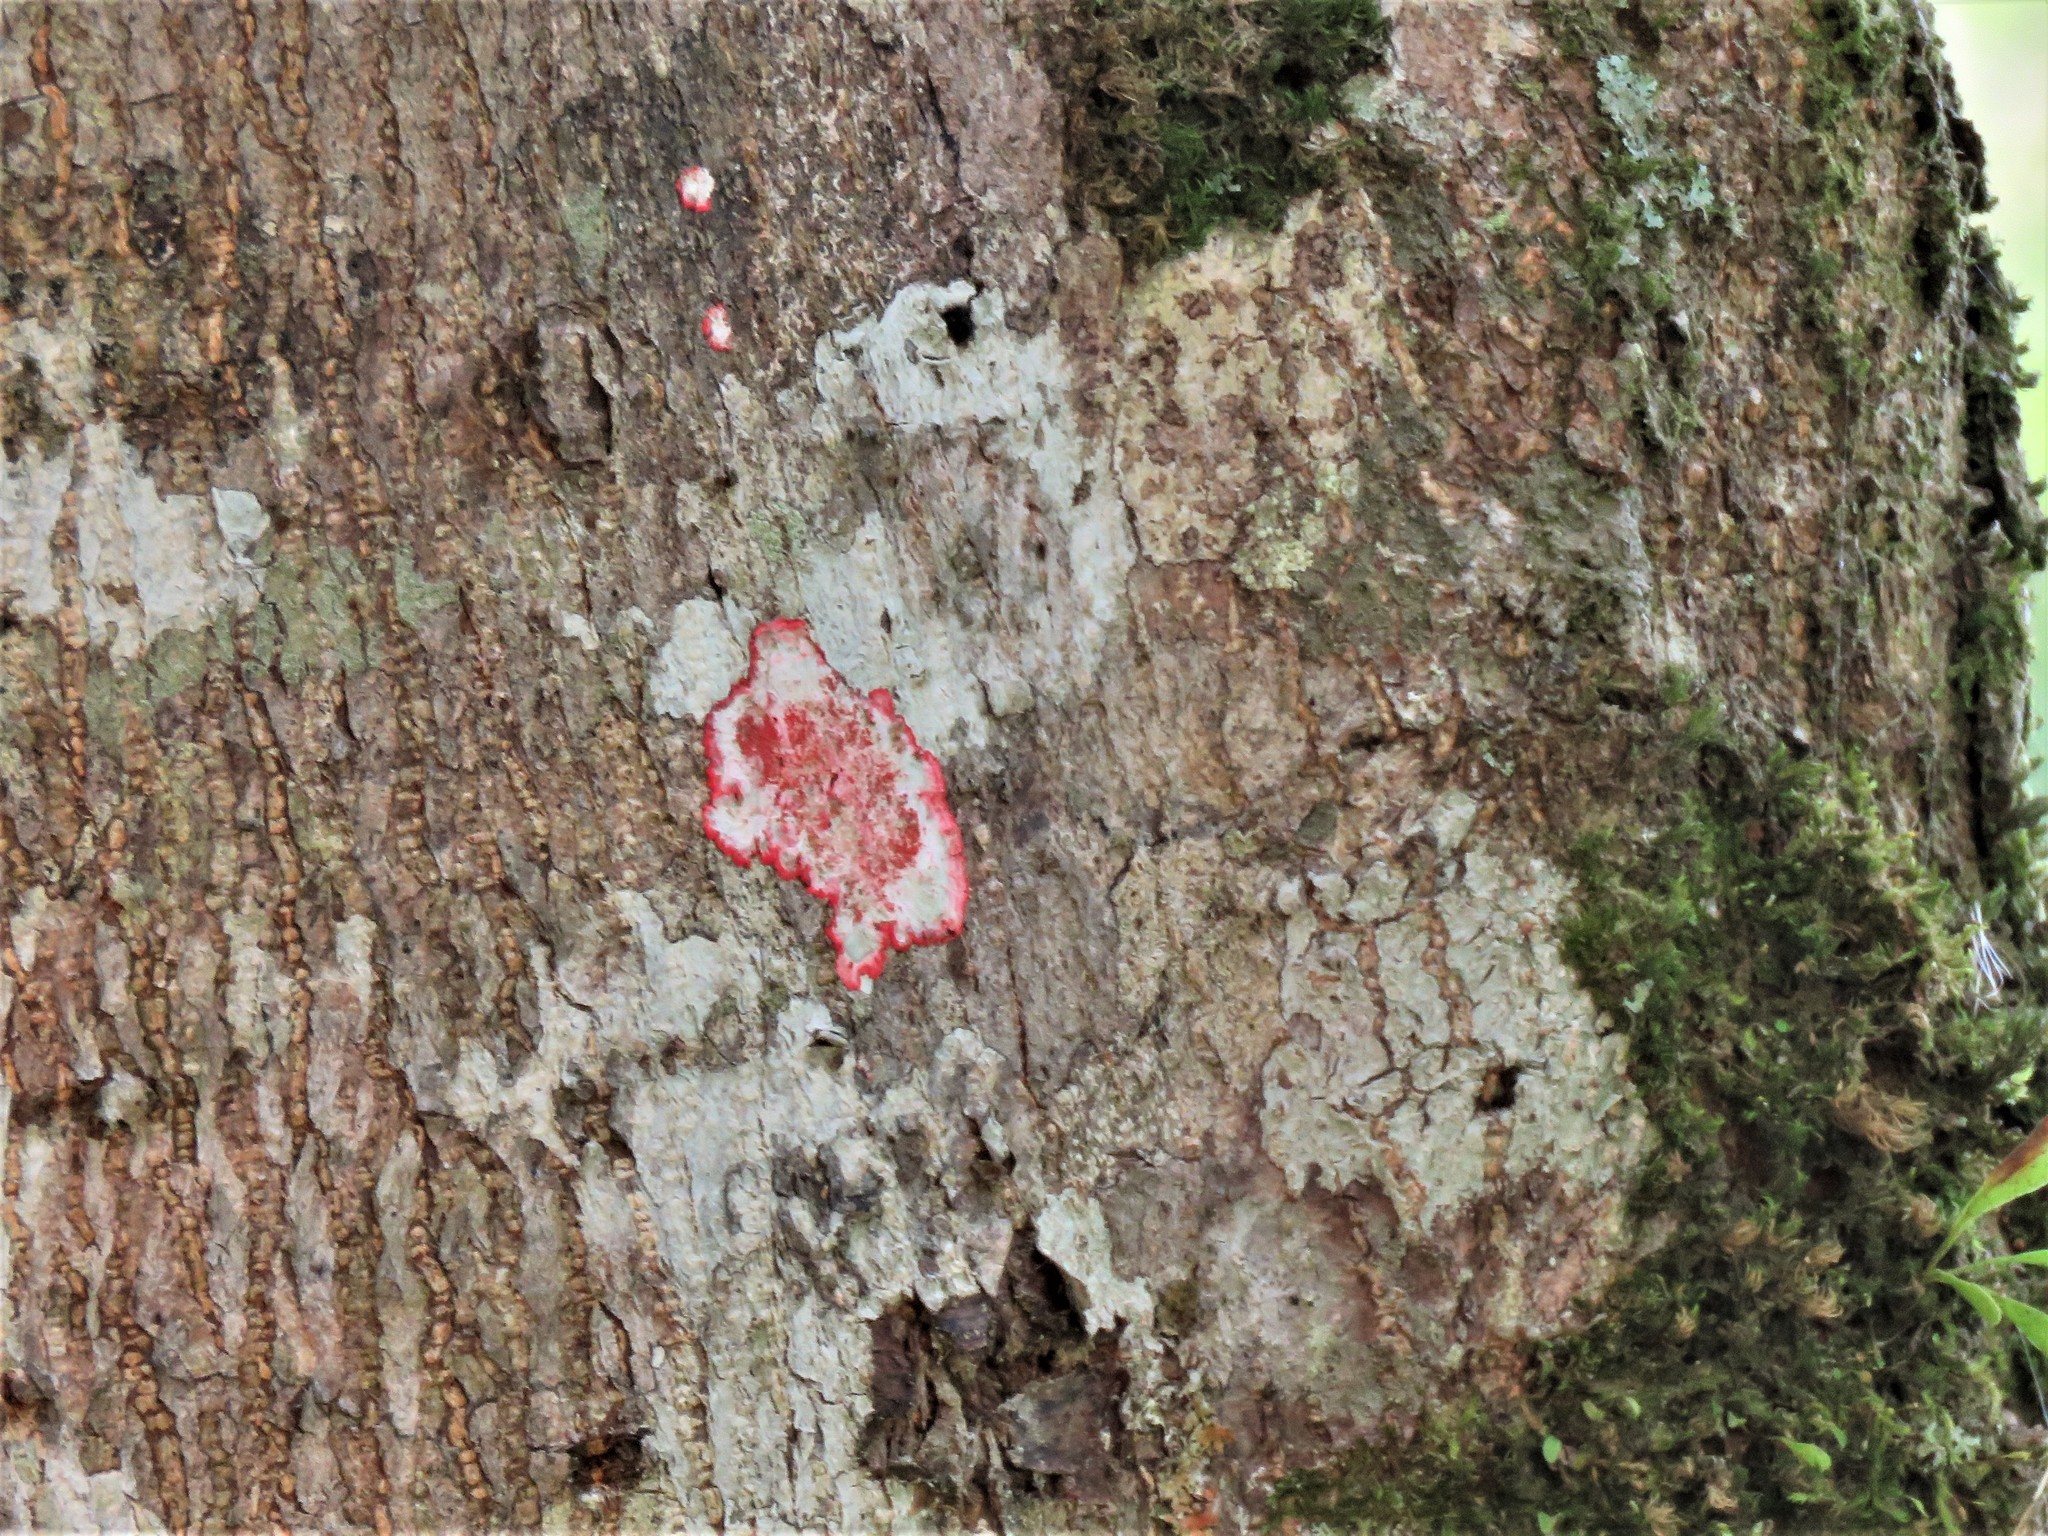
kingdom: Fungi
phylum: Ascomycota
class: Arthoniomycetes
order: Arthoniales
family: Arthoniaceae
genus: Herpothallon
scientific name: Herpothallon rubrocinctum
